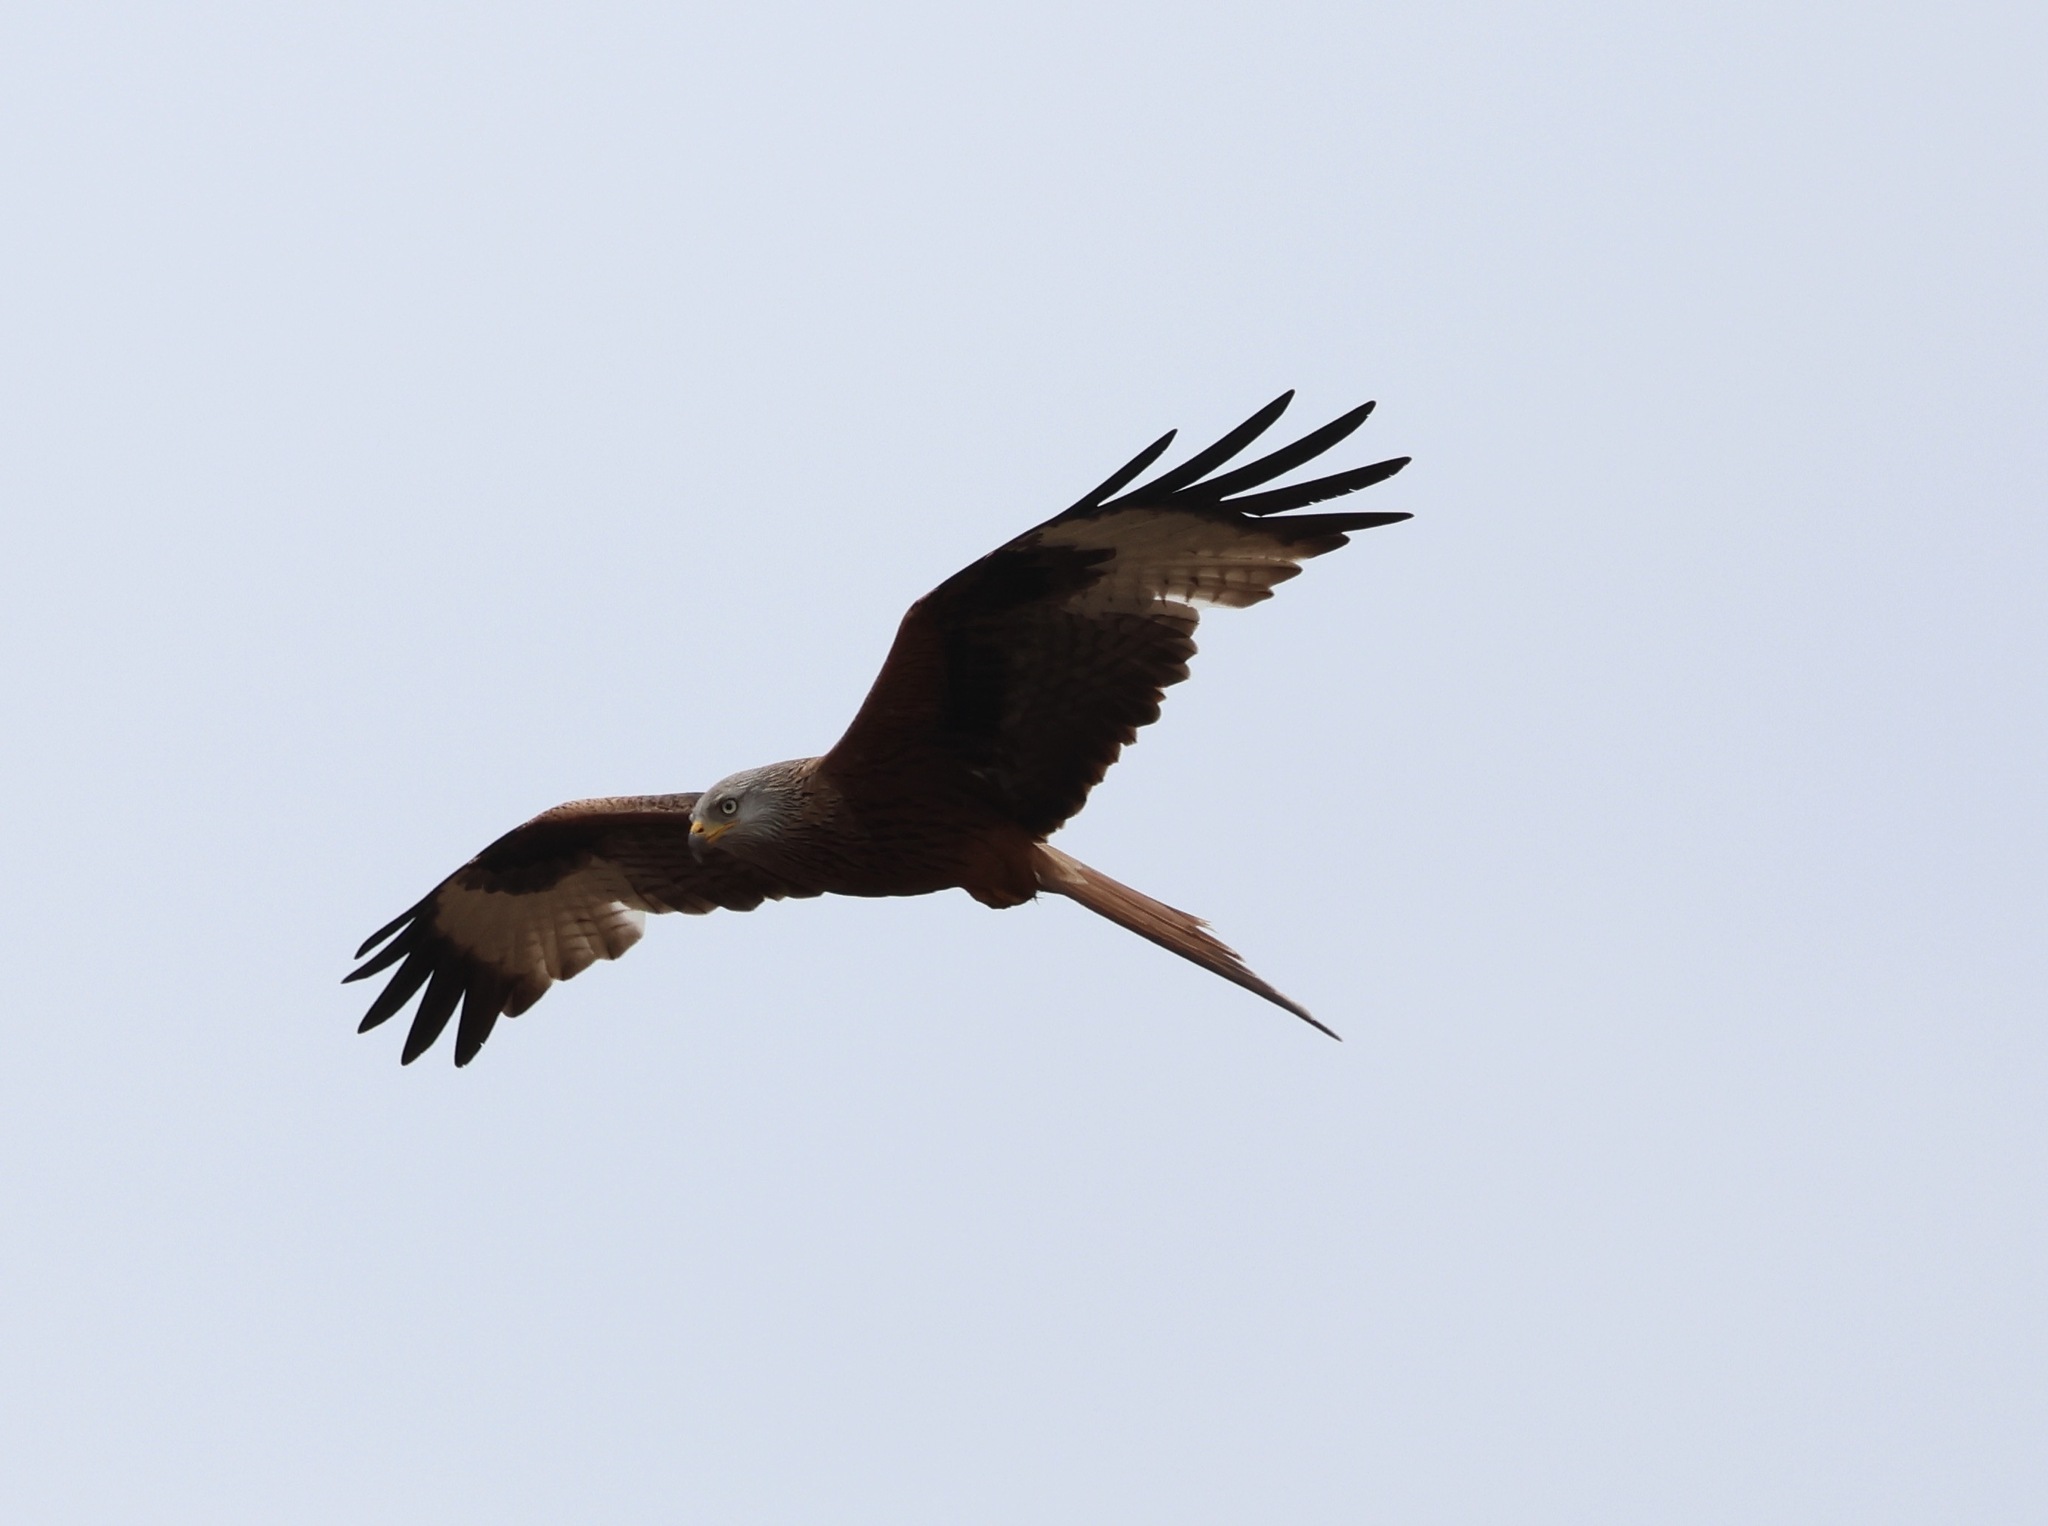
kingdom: Animalia
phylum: Chordata
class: Aves
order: Accipitriformes
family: Accipitridae
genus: Milvus
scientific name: Milvus milvus
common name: Red kite
